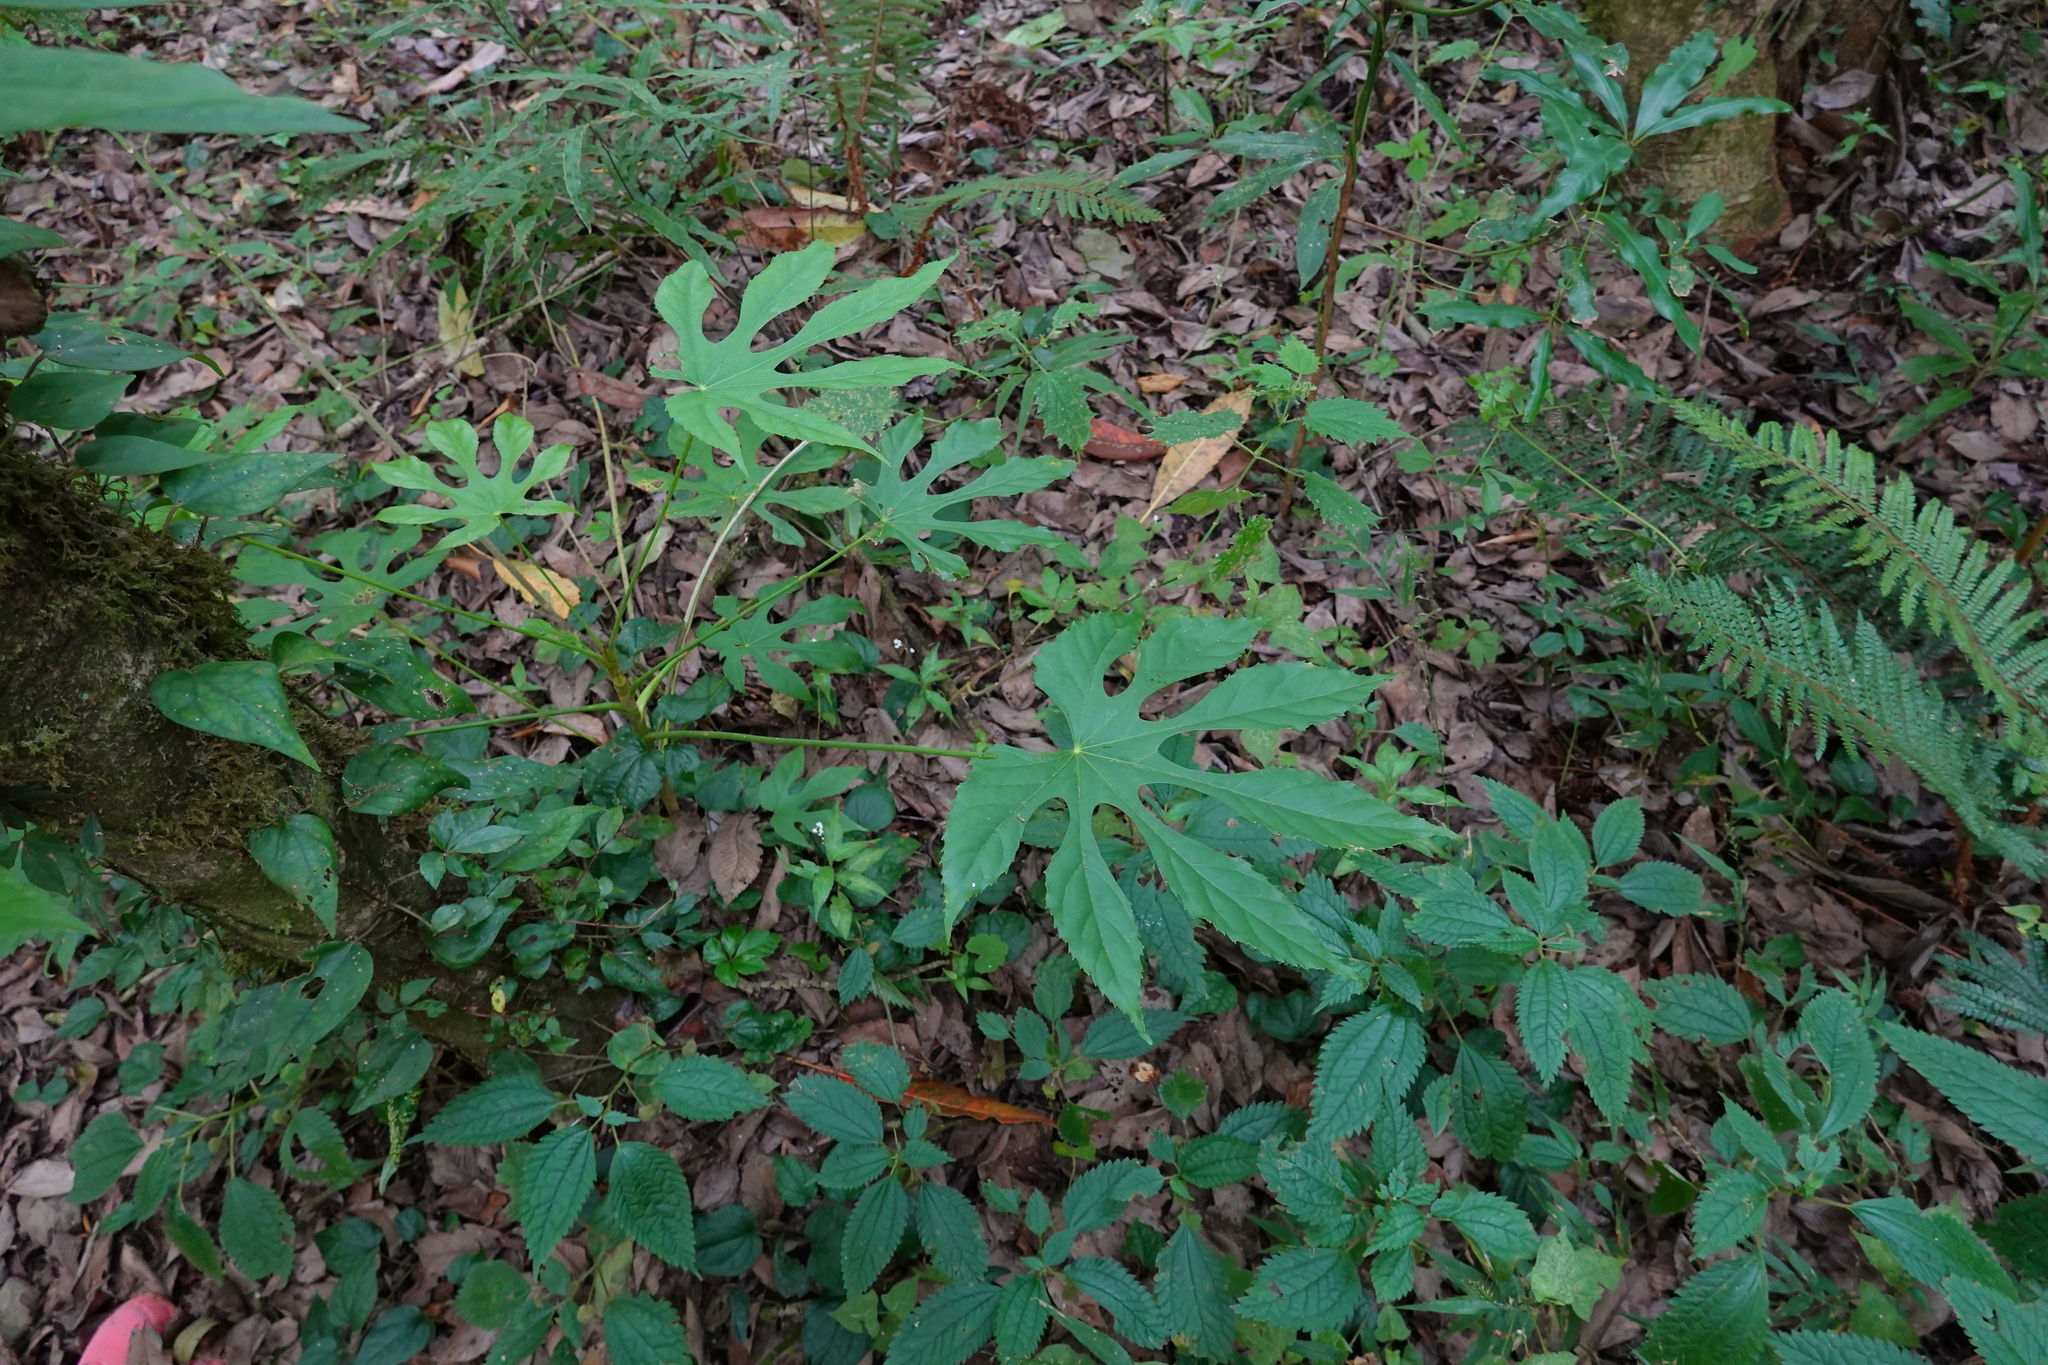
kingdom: Plantae
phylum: Tracheophyta
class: Magnoliopsida
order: Apiales
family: Araliaceae
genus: Fatsia
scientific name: Fatsia polycarpa
